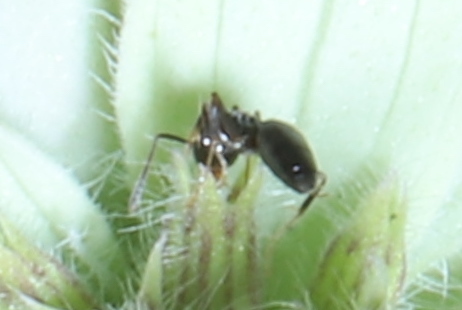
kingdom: Animalia
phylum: Arthropoda
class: Insecta
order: Hymenoptera
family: Formicidae
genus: Tapinoma
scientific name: Tapinoma sessile
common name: Odorous house ant
